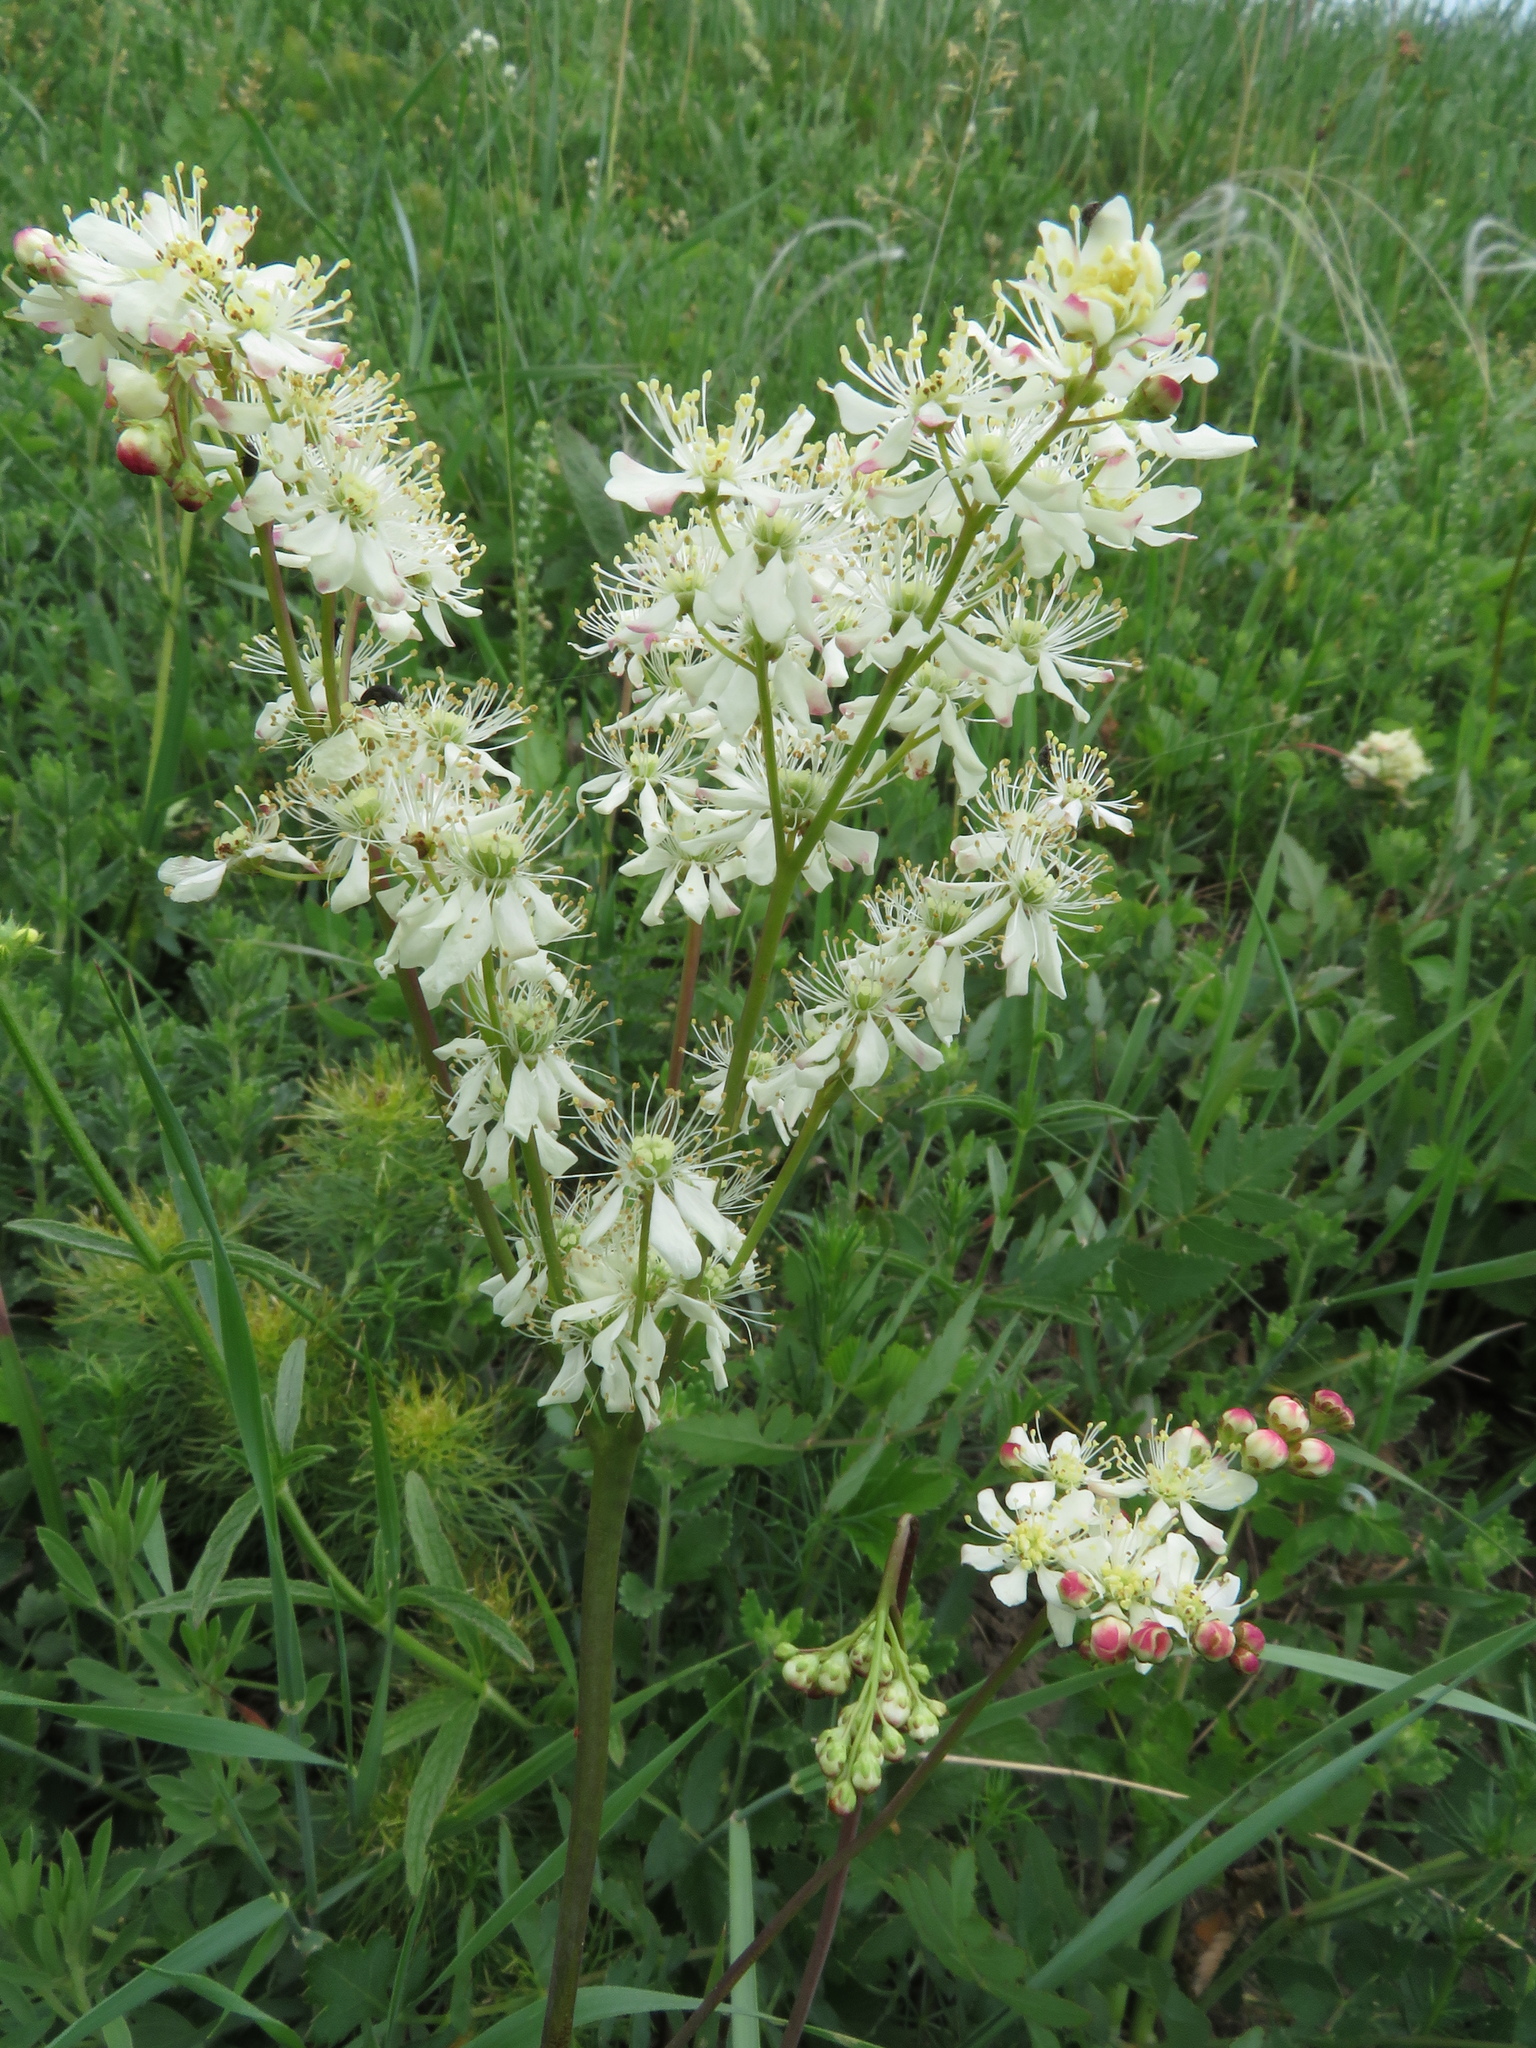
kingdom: Plantae
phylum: Tracheophyta
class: Magnoliopsida
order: Rosales
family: Rosaceae
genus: Filipendula
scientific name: Filipendula vulgaris
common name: Dropwort
